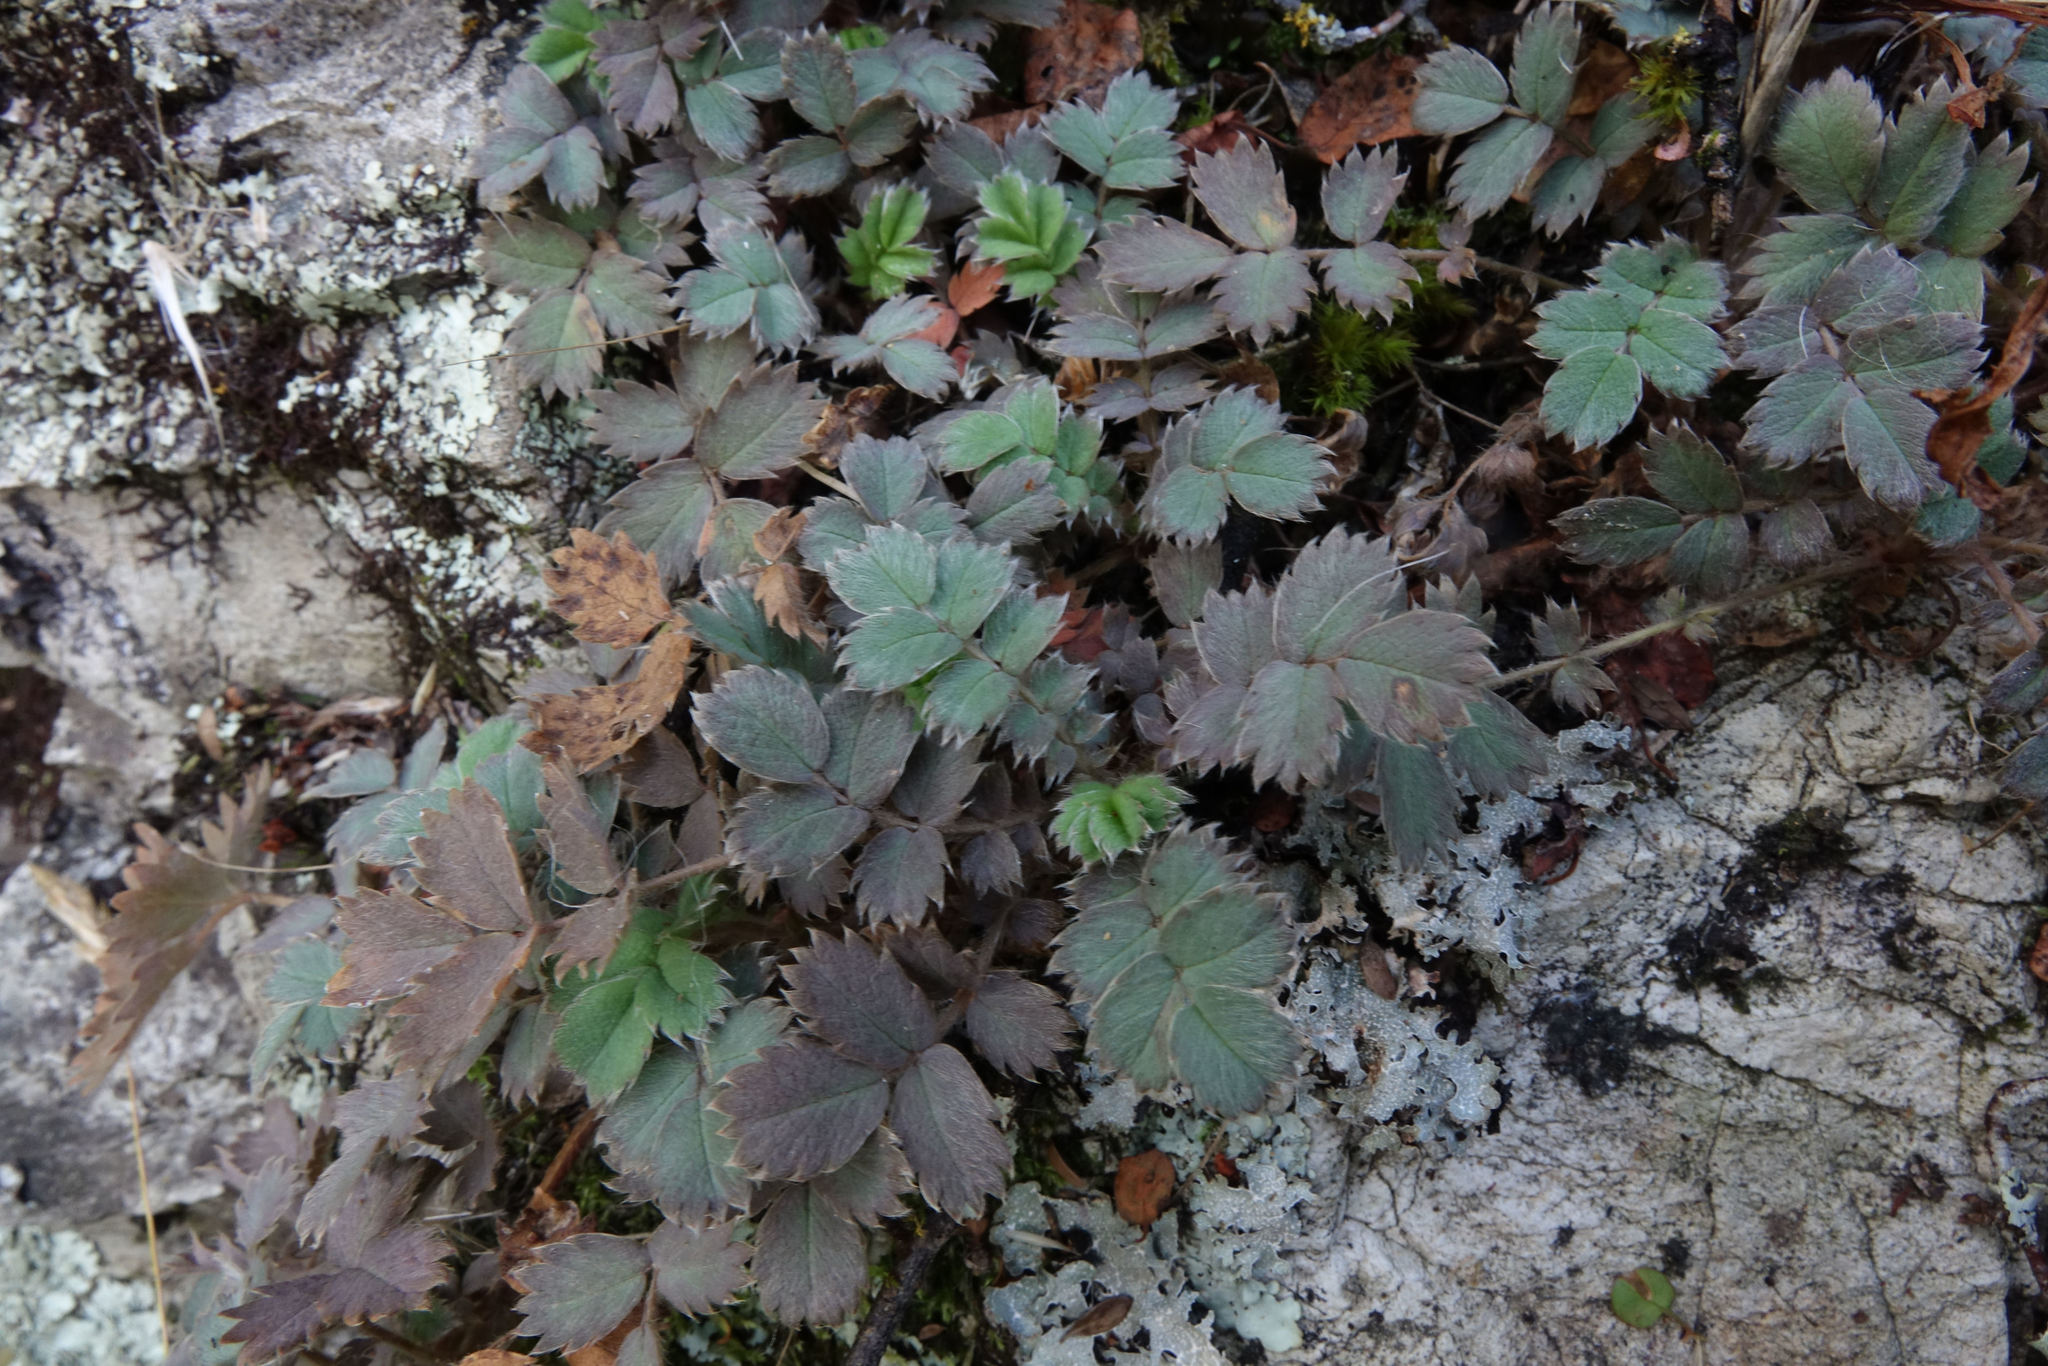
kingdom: Plantae
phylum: Tracheophyta
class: Magnoliopsida
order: Rosales
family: Rosaceae
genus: Acaena
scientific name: Acaena caesiiglauca
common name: Glaucous pirri-pirri-bur
